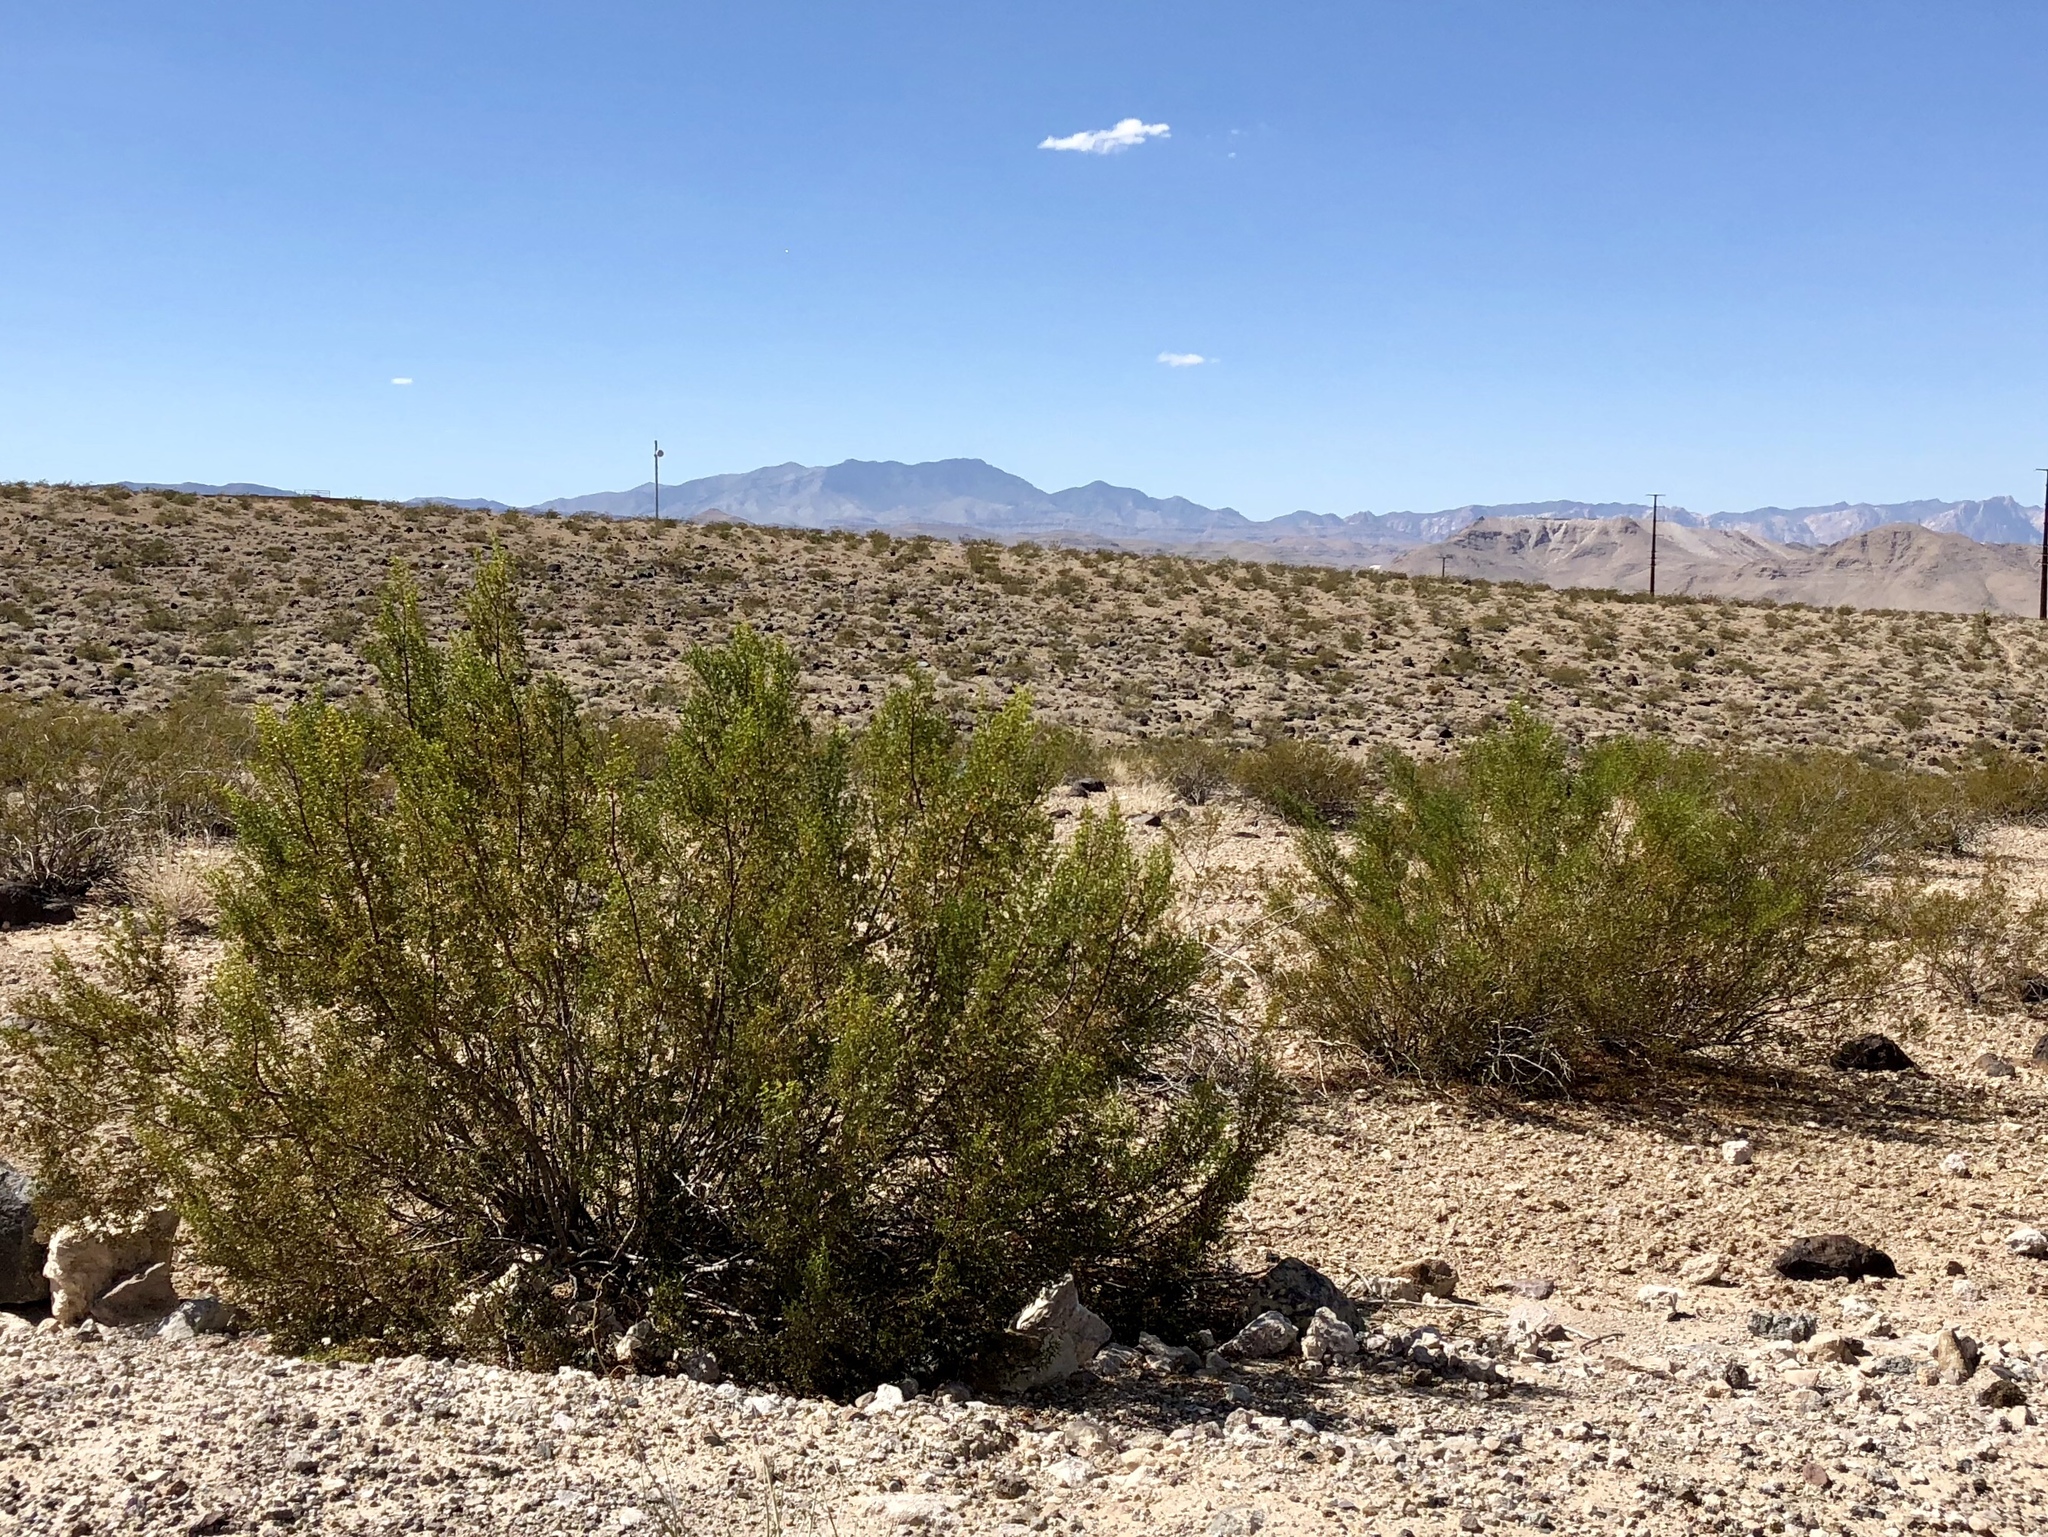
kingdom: Plantae
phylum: Tracheophyta
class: Magnoliopsida
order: Zygophyllales
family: Zygophyllaceae
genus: Larrea
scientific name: Larrea tridentata
